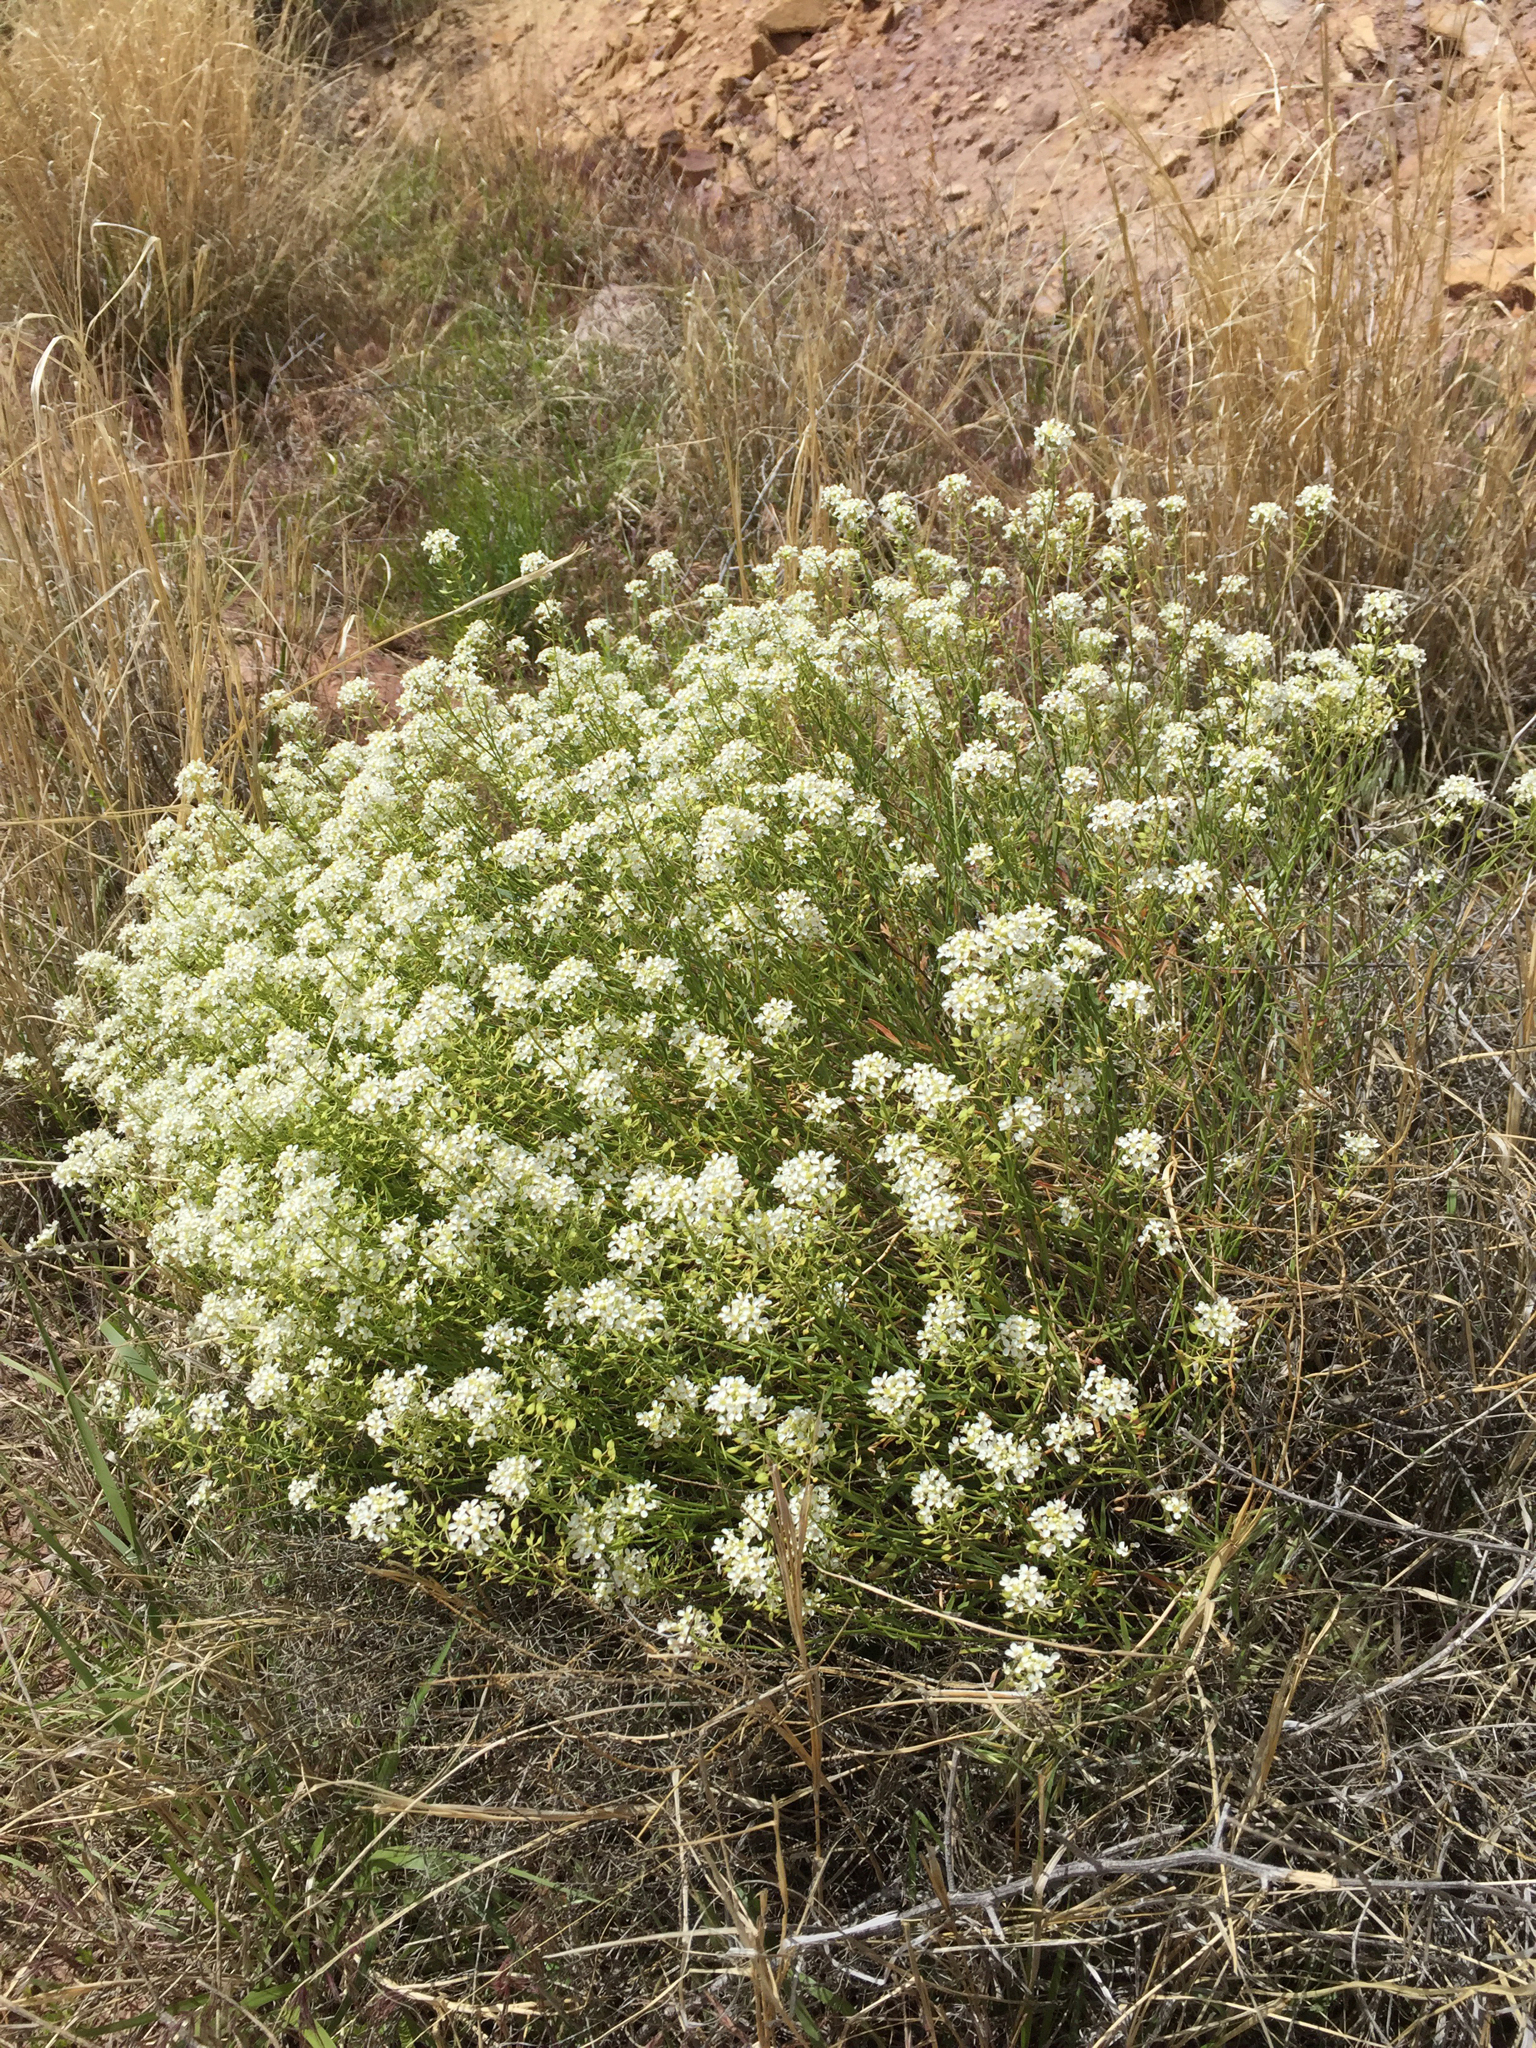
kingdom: Plantae
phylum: Tracheophyta
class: Magnoliopsida
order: Brassicales
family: Brassicaceae
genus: Lepidium
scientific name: Lepidium fremontii
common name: Fremont's pepperwort
